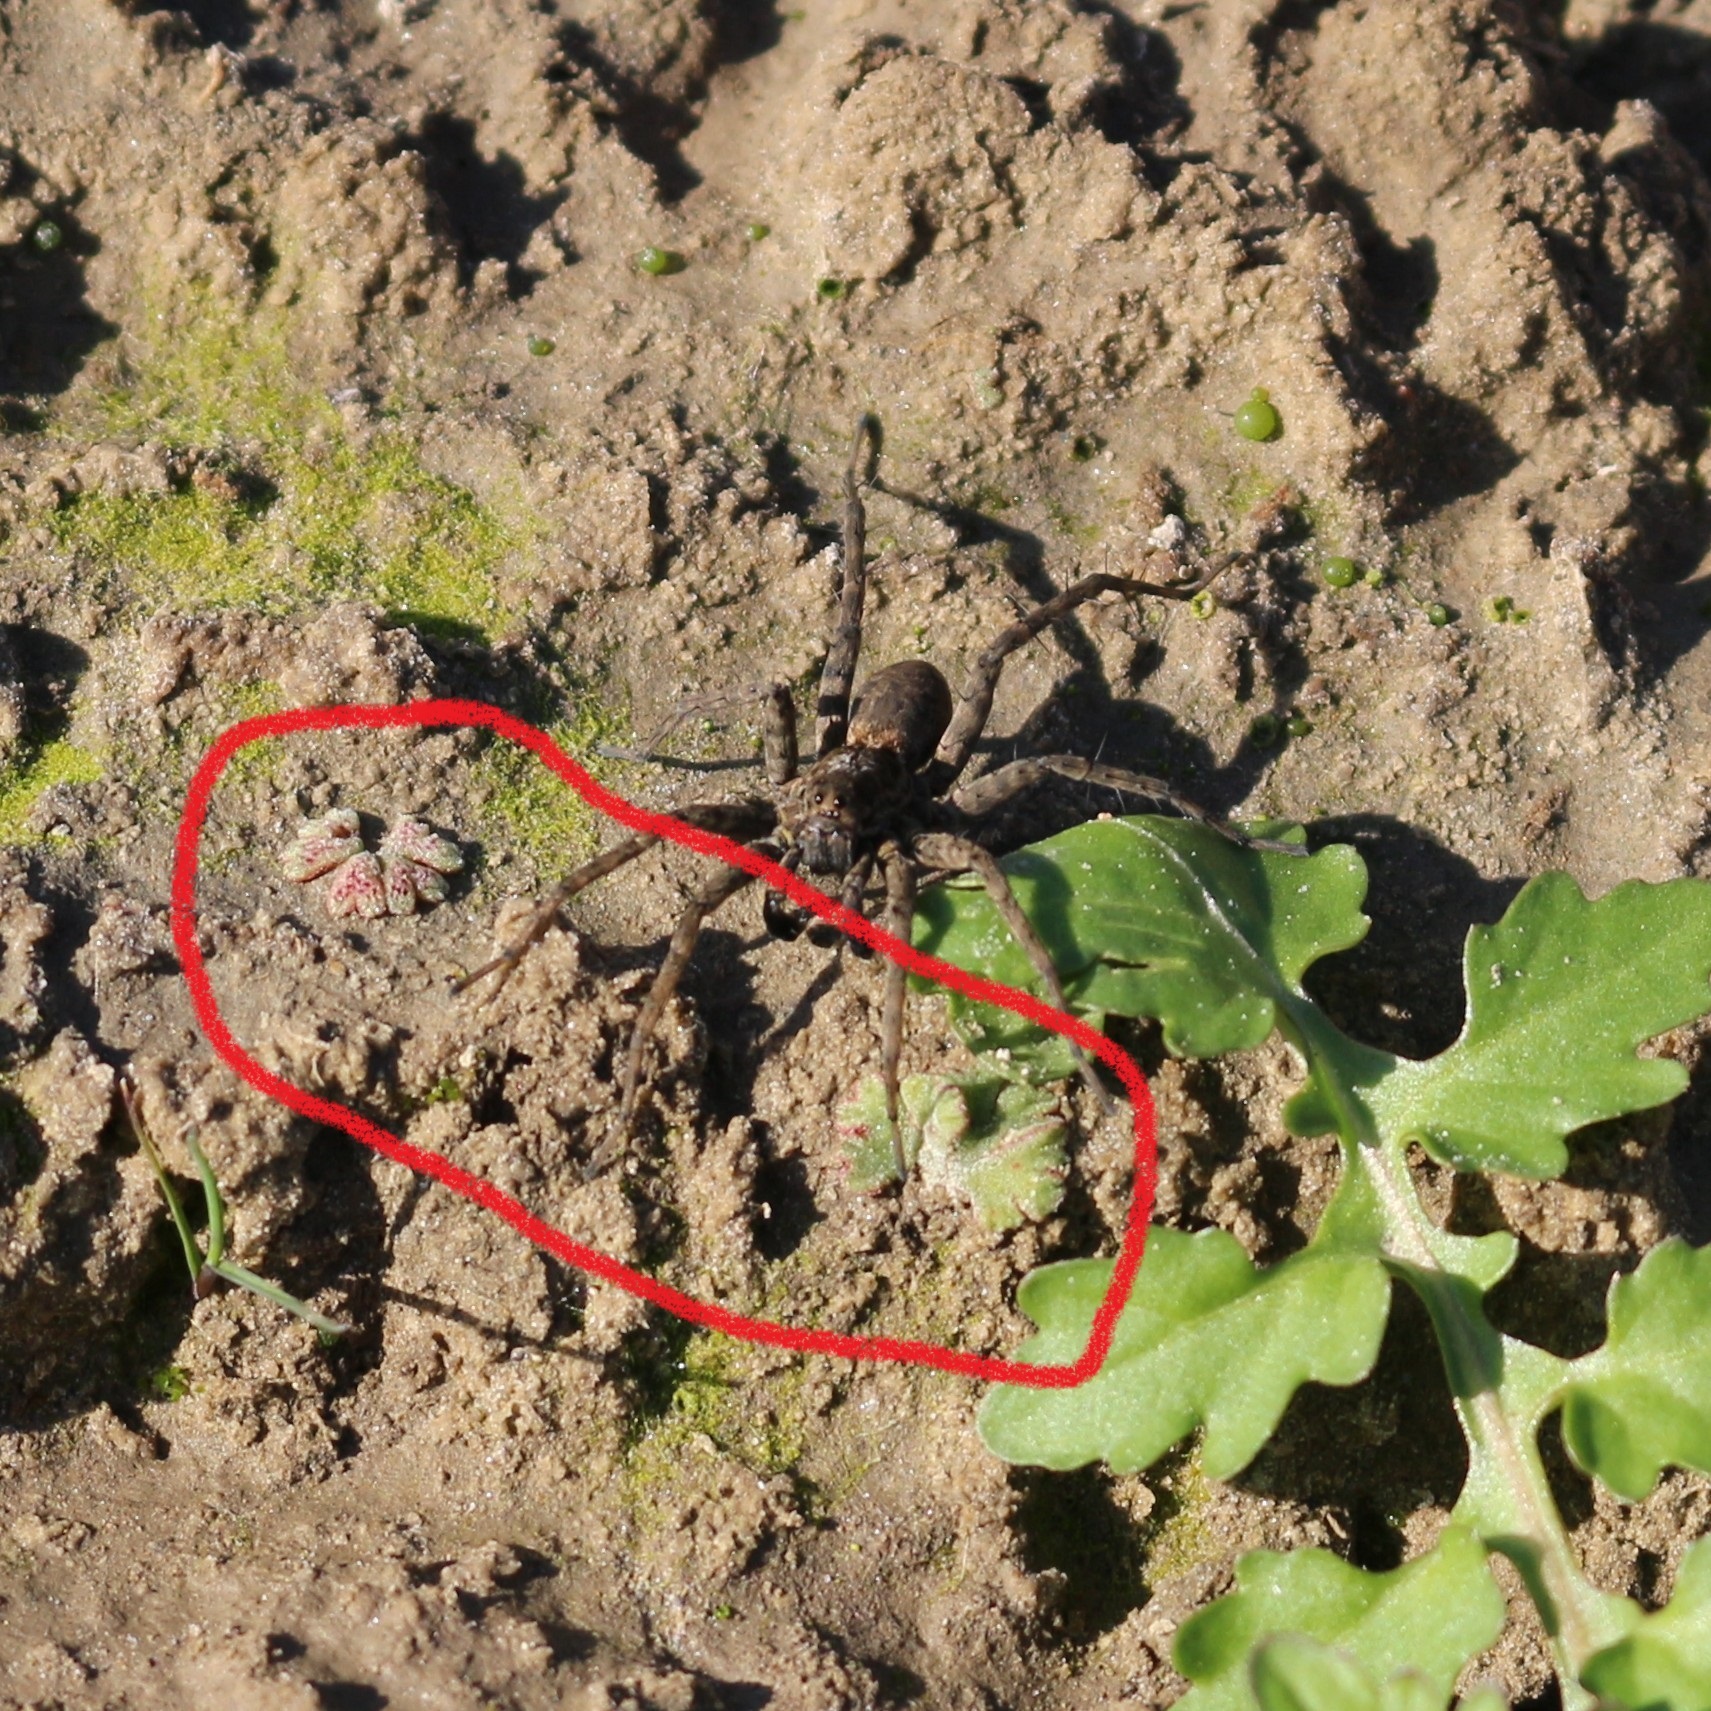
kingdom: Plantae
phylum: Marchantiophyta
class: Marchantiopsida
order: Marchantiales
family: Ricciaceae
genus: Riccia
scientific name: Riccia frostii
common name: Frost s crystalwort
